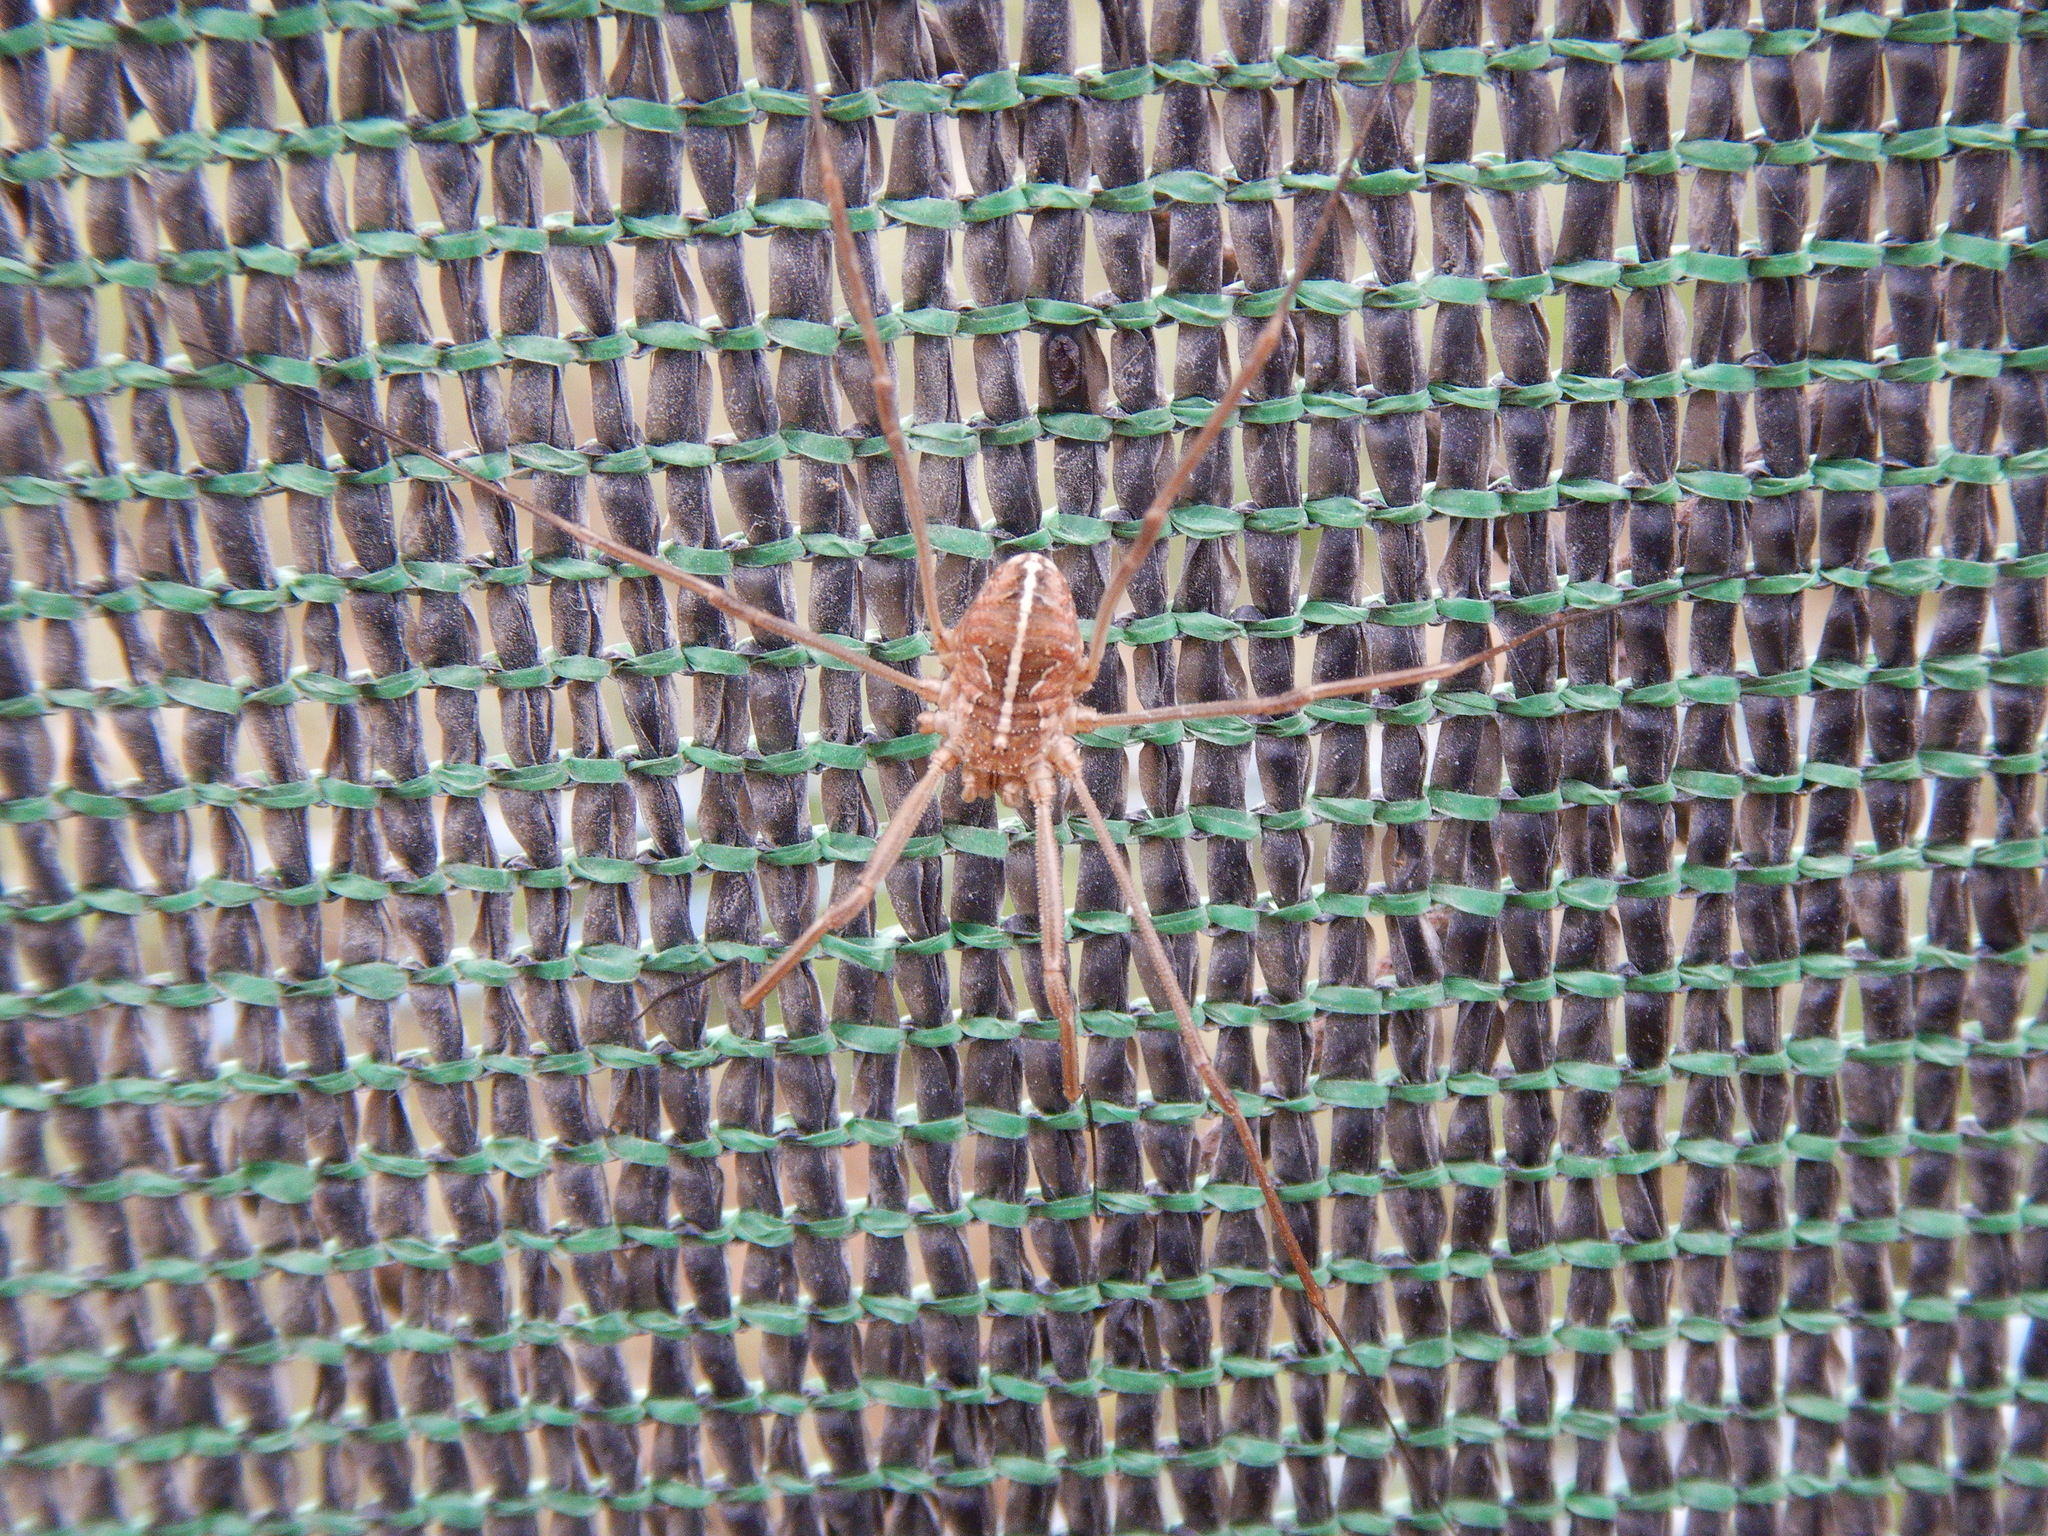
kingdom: Animalia
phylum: Arthropoda
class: Arachnida
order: Opiliones
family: Phalangiidae
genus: Metaphalangium
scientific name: Metaphalangium cirtanum
